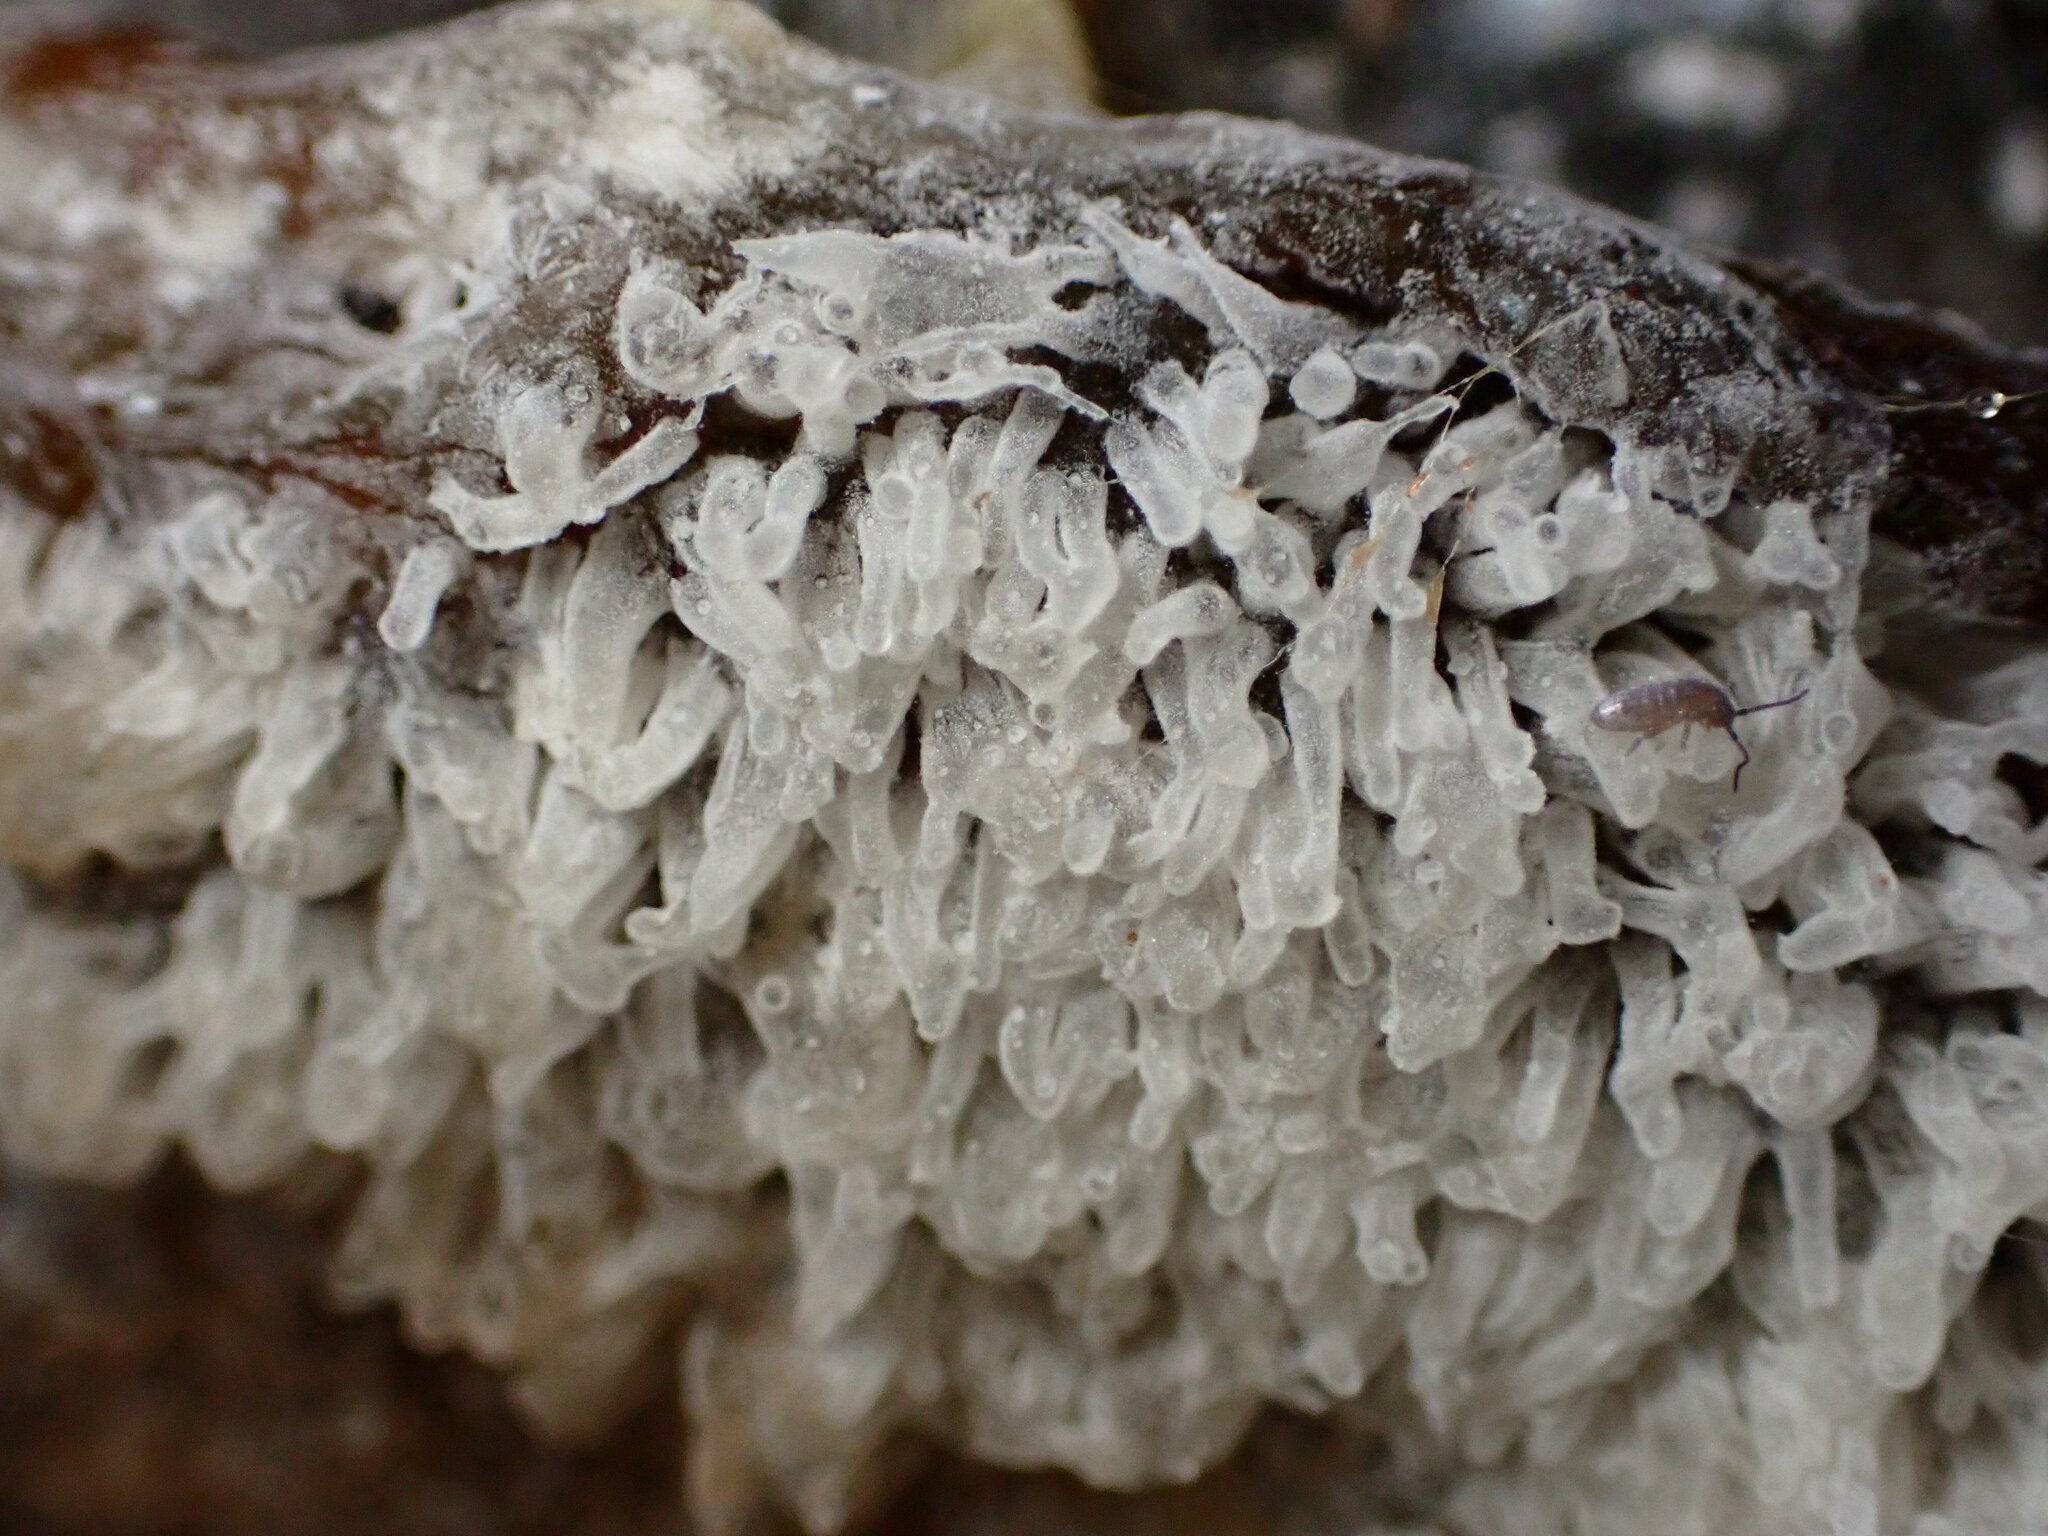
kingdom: Protozoa
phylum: Mycetozoa
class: Protosteliomycetes
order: Ceratiomyxales
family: Ceratiomyxaceae
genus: Ceratiomyxa
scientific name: Ceratiomyxa fruticulosa
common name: Honeycomb coral slime mold
